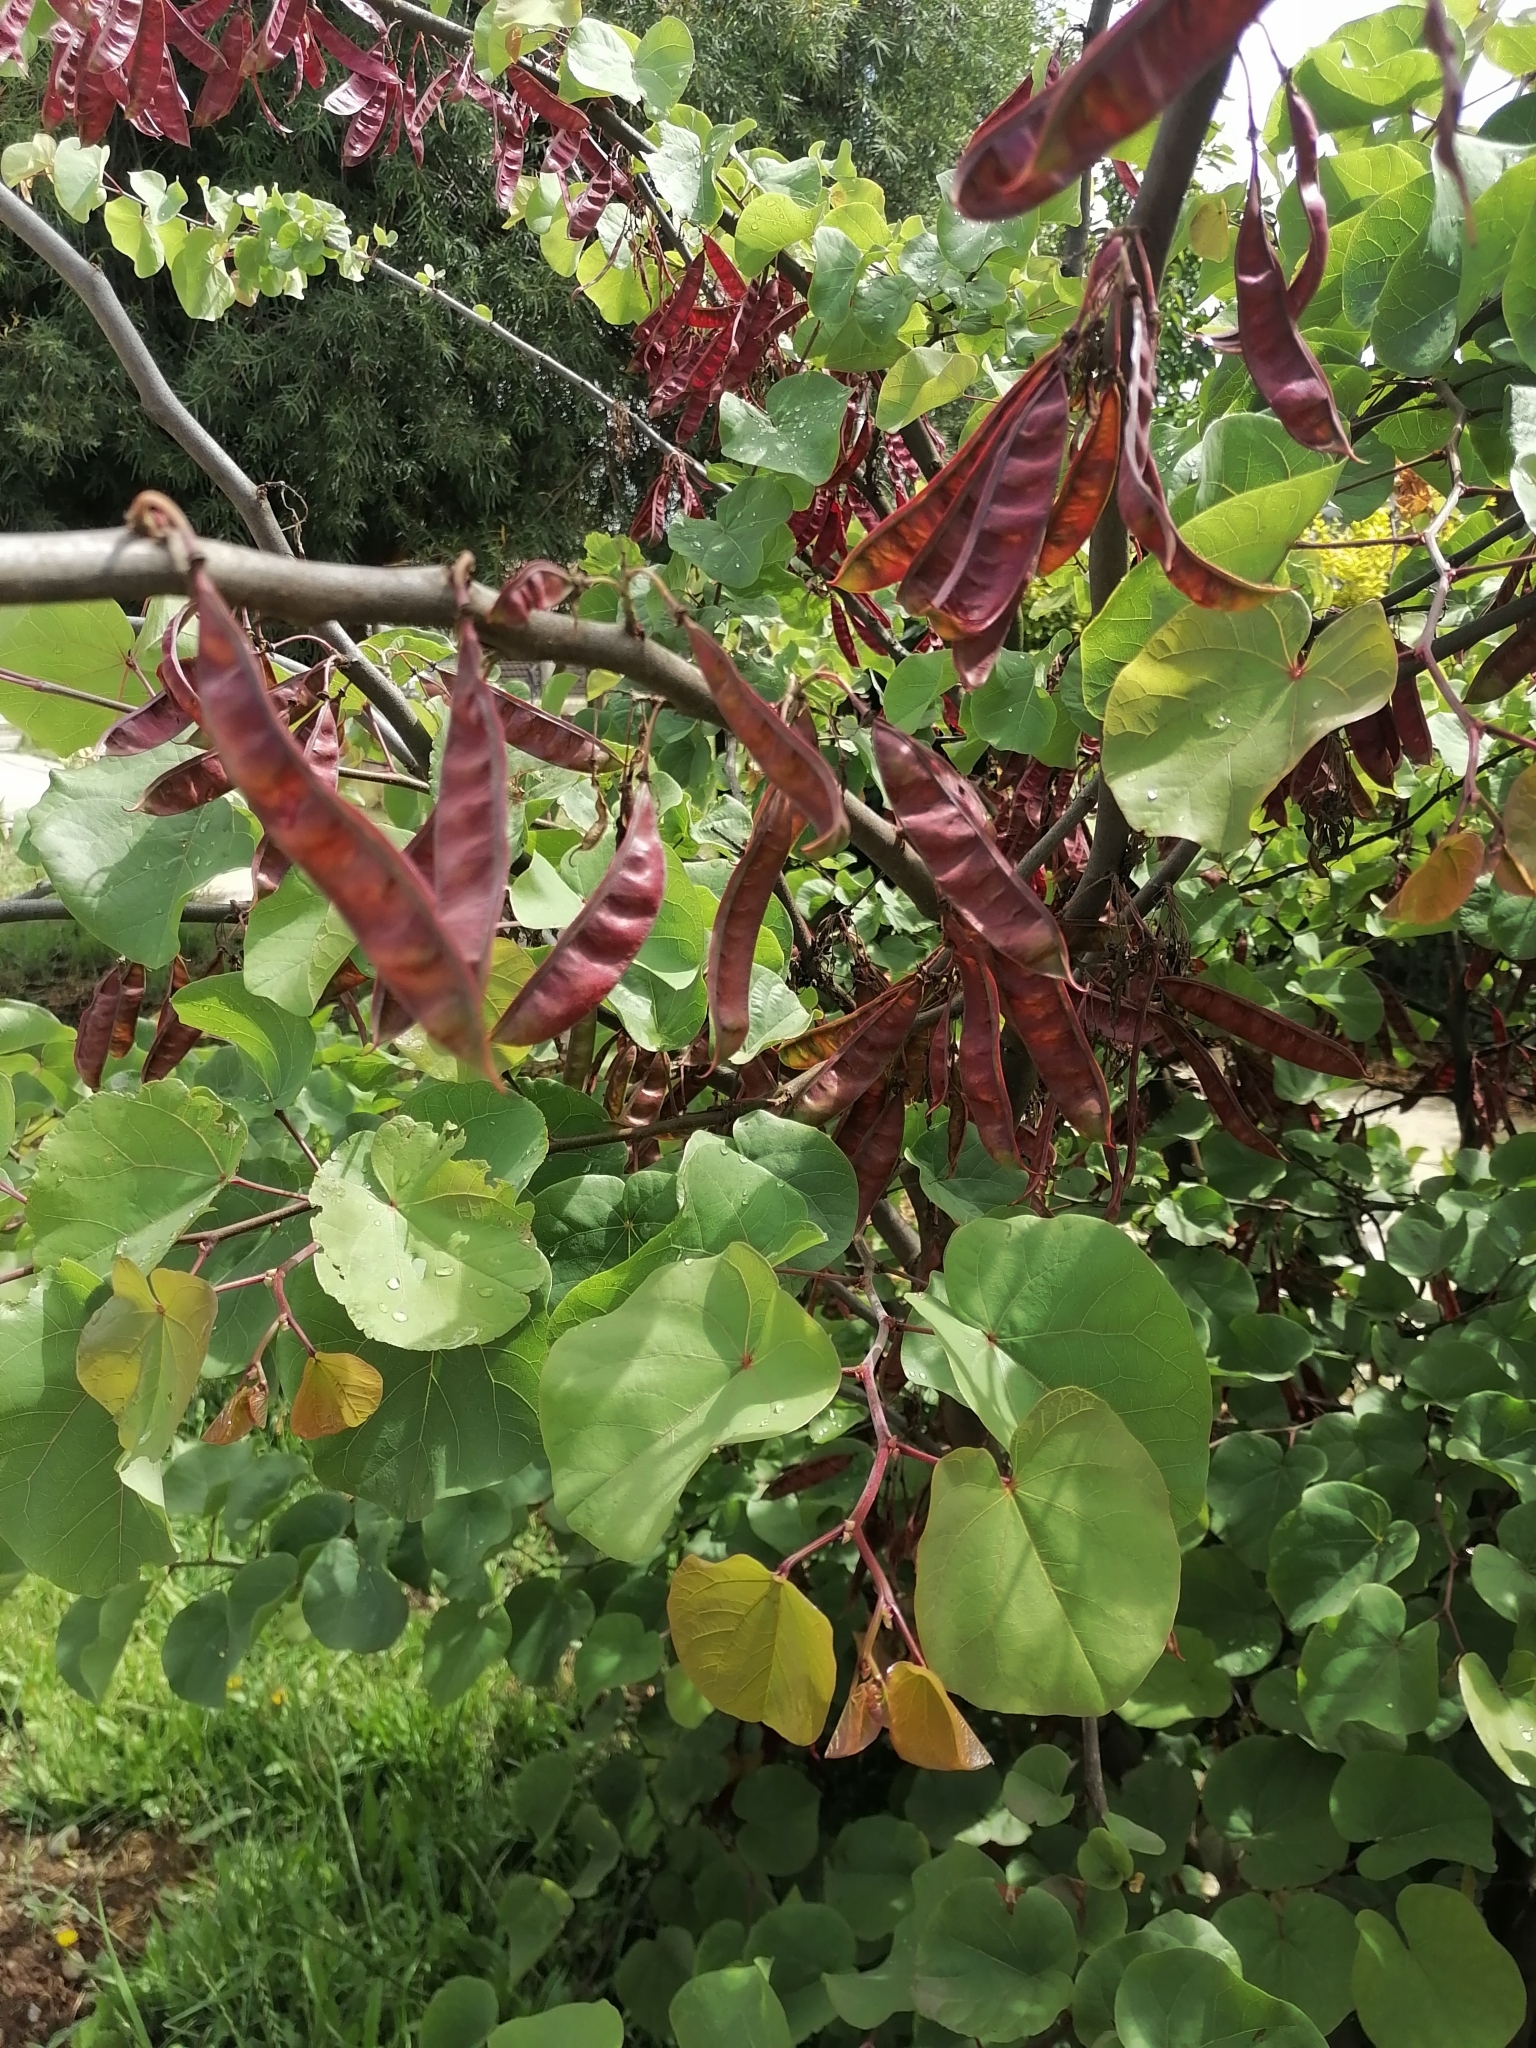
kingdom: Plantae
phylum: Tracheophyta
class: Magnoliopsida
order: Fabales
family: Fabaceae
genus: Cercis
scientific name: Cercis siliquastrum
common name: Judas tree
